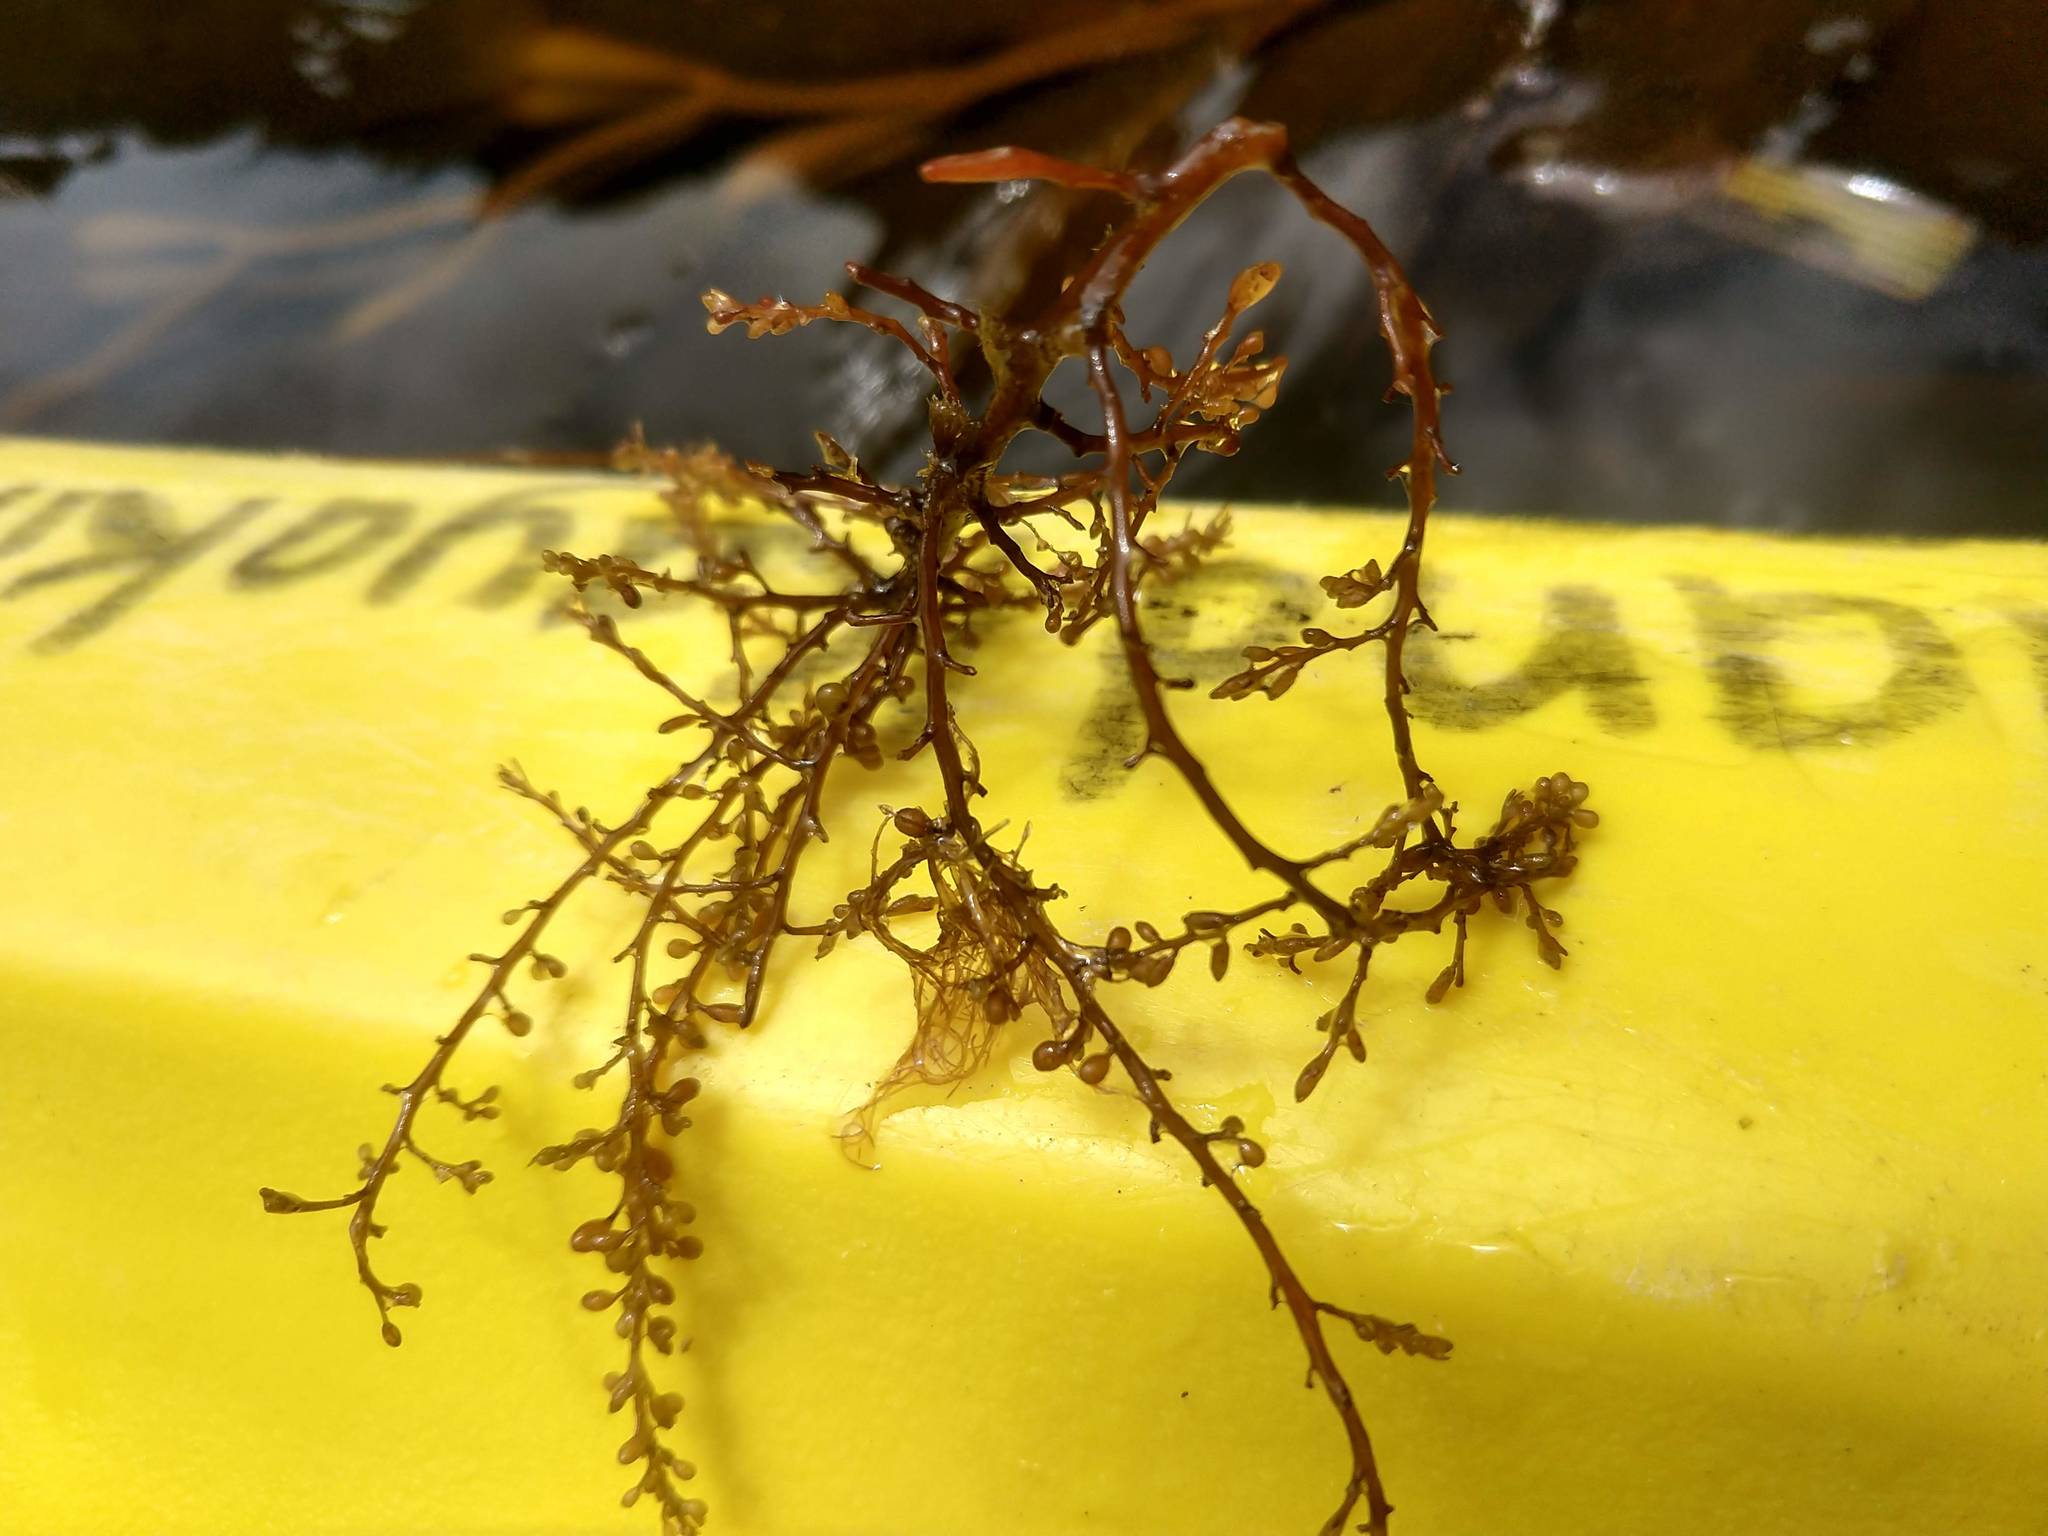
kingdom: Chromista
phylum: Ochrophyta
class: Phaeophyceae
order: Fucales
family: Sargassaceae
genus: Sargassum
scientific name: Sargassum muticum
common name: Japweed
